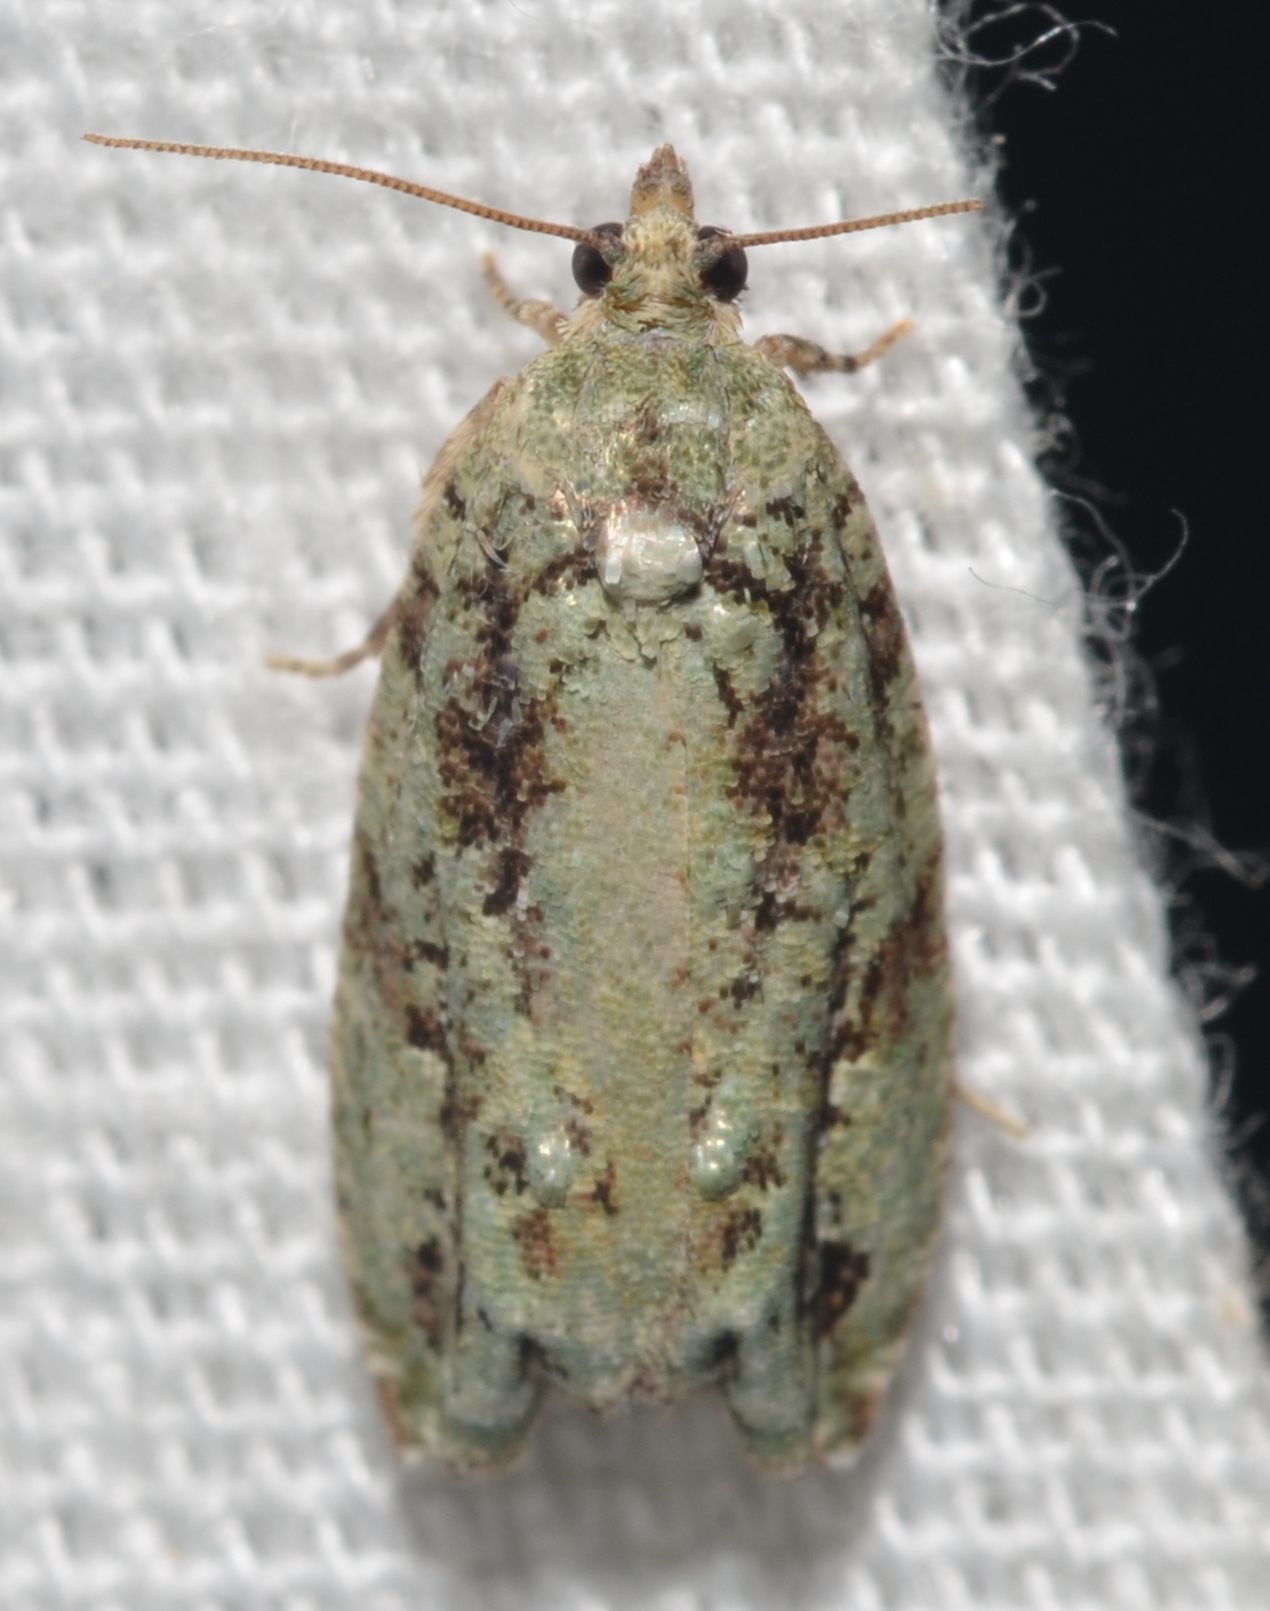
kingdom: Animalia
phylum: Arthropoda
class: Insecta
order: Lepidoptera
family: Tortricidae
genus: Proteoteras
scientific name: Proteoteras moffatiana
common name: Maple bud borer moth
